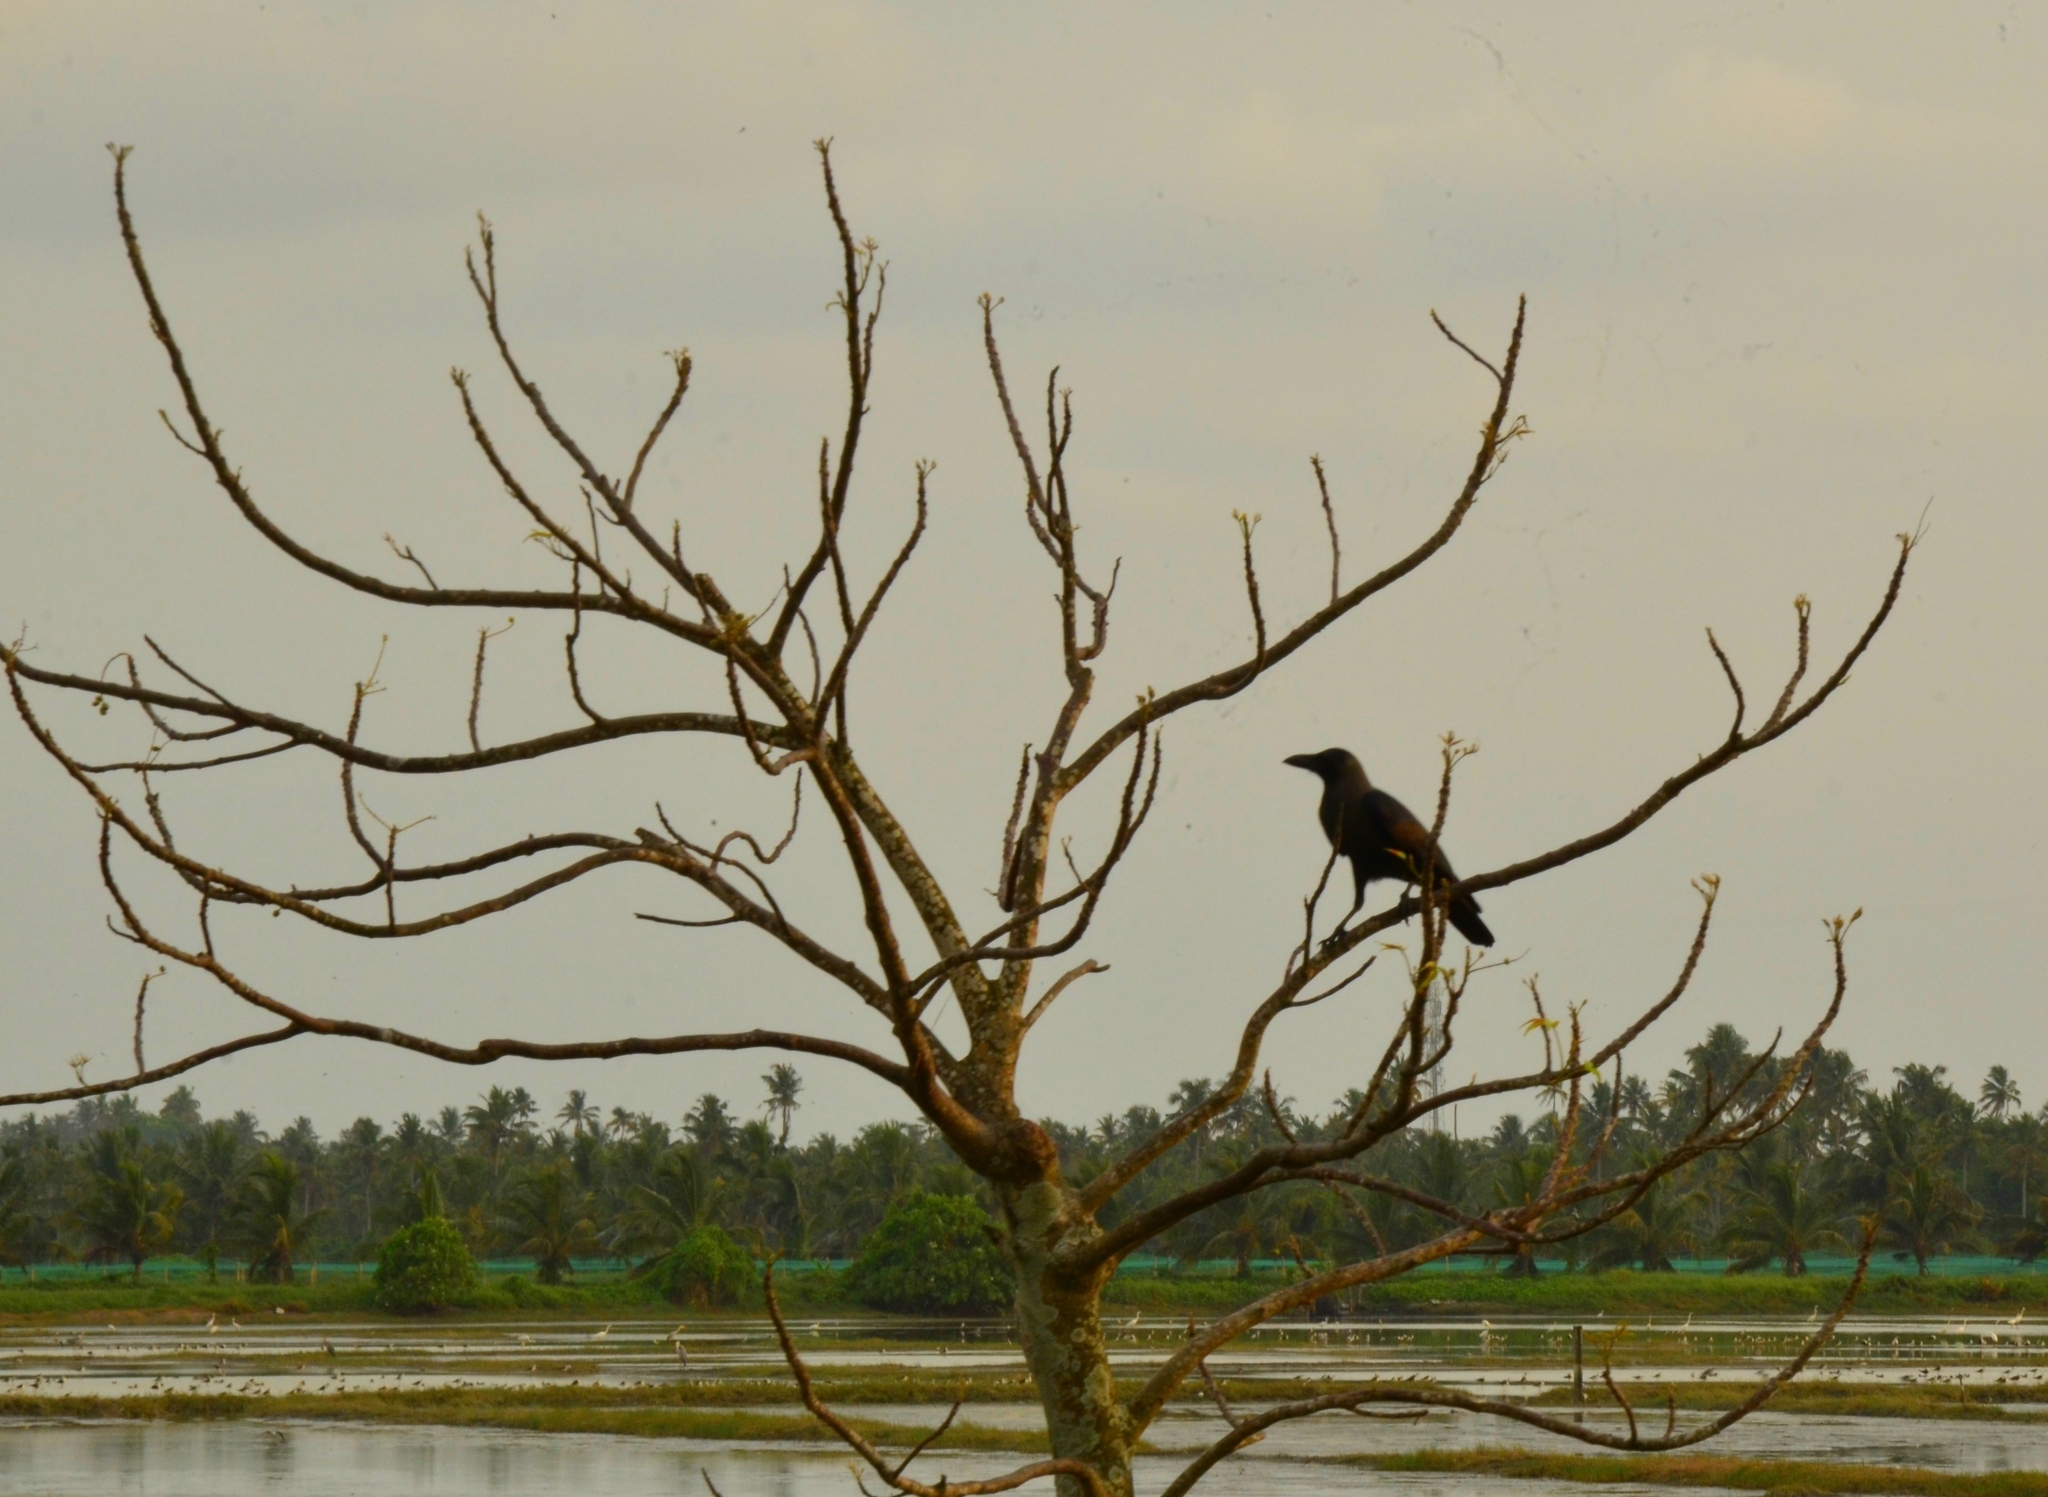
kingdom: Animalia
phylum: Chordata
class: Aves
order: Passeriformes
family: Corvidae
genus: Corvus
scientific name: Corvus splendens
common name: House crow
